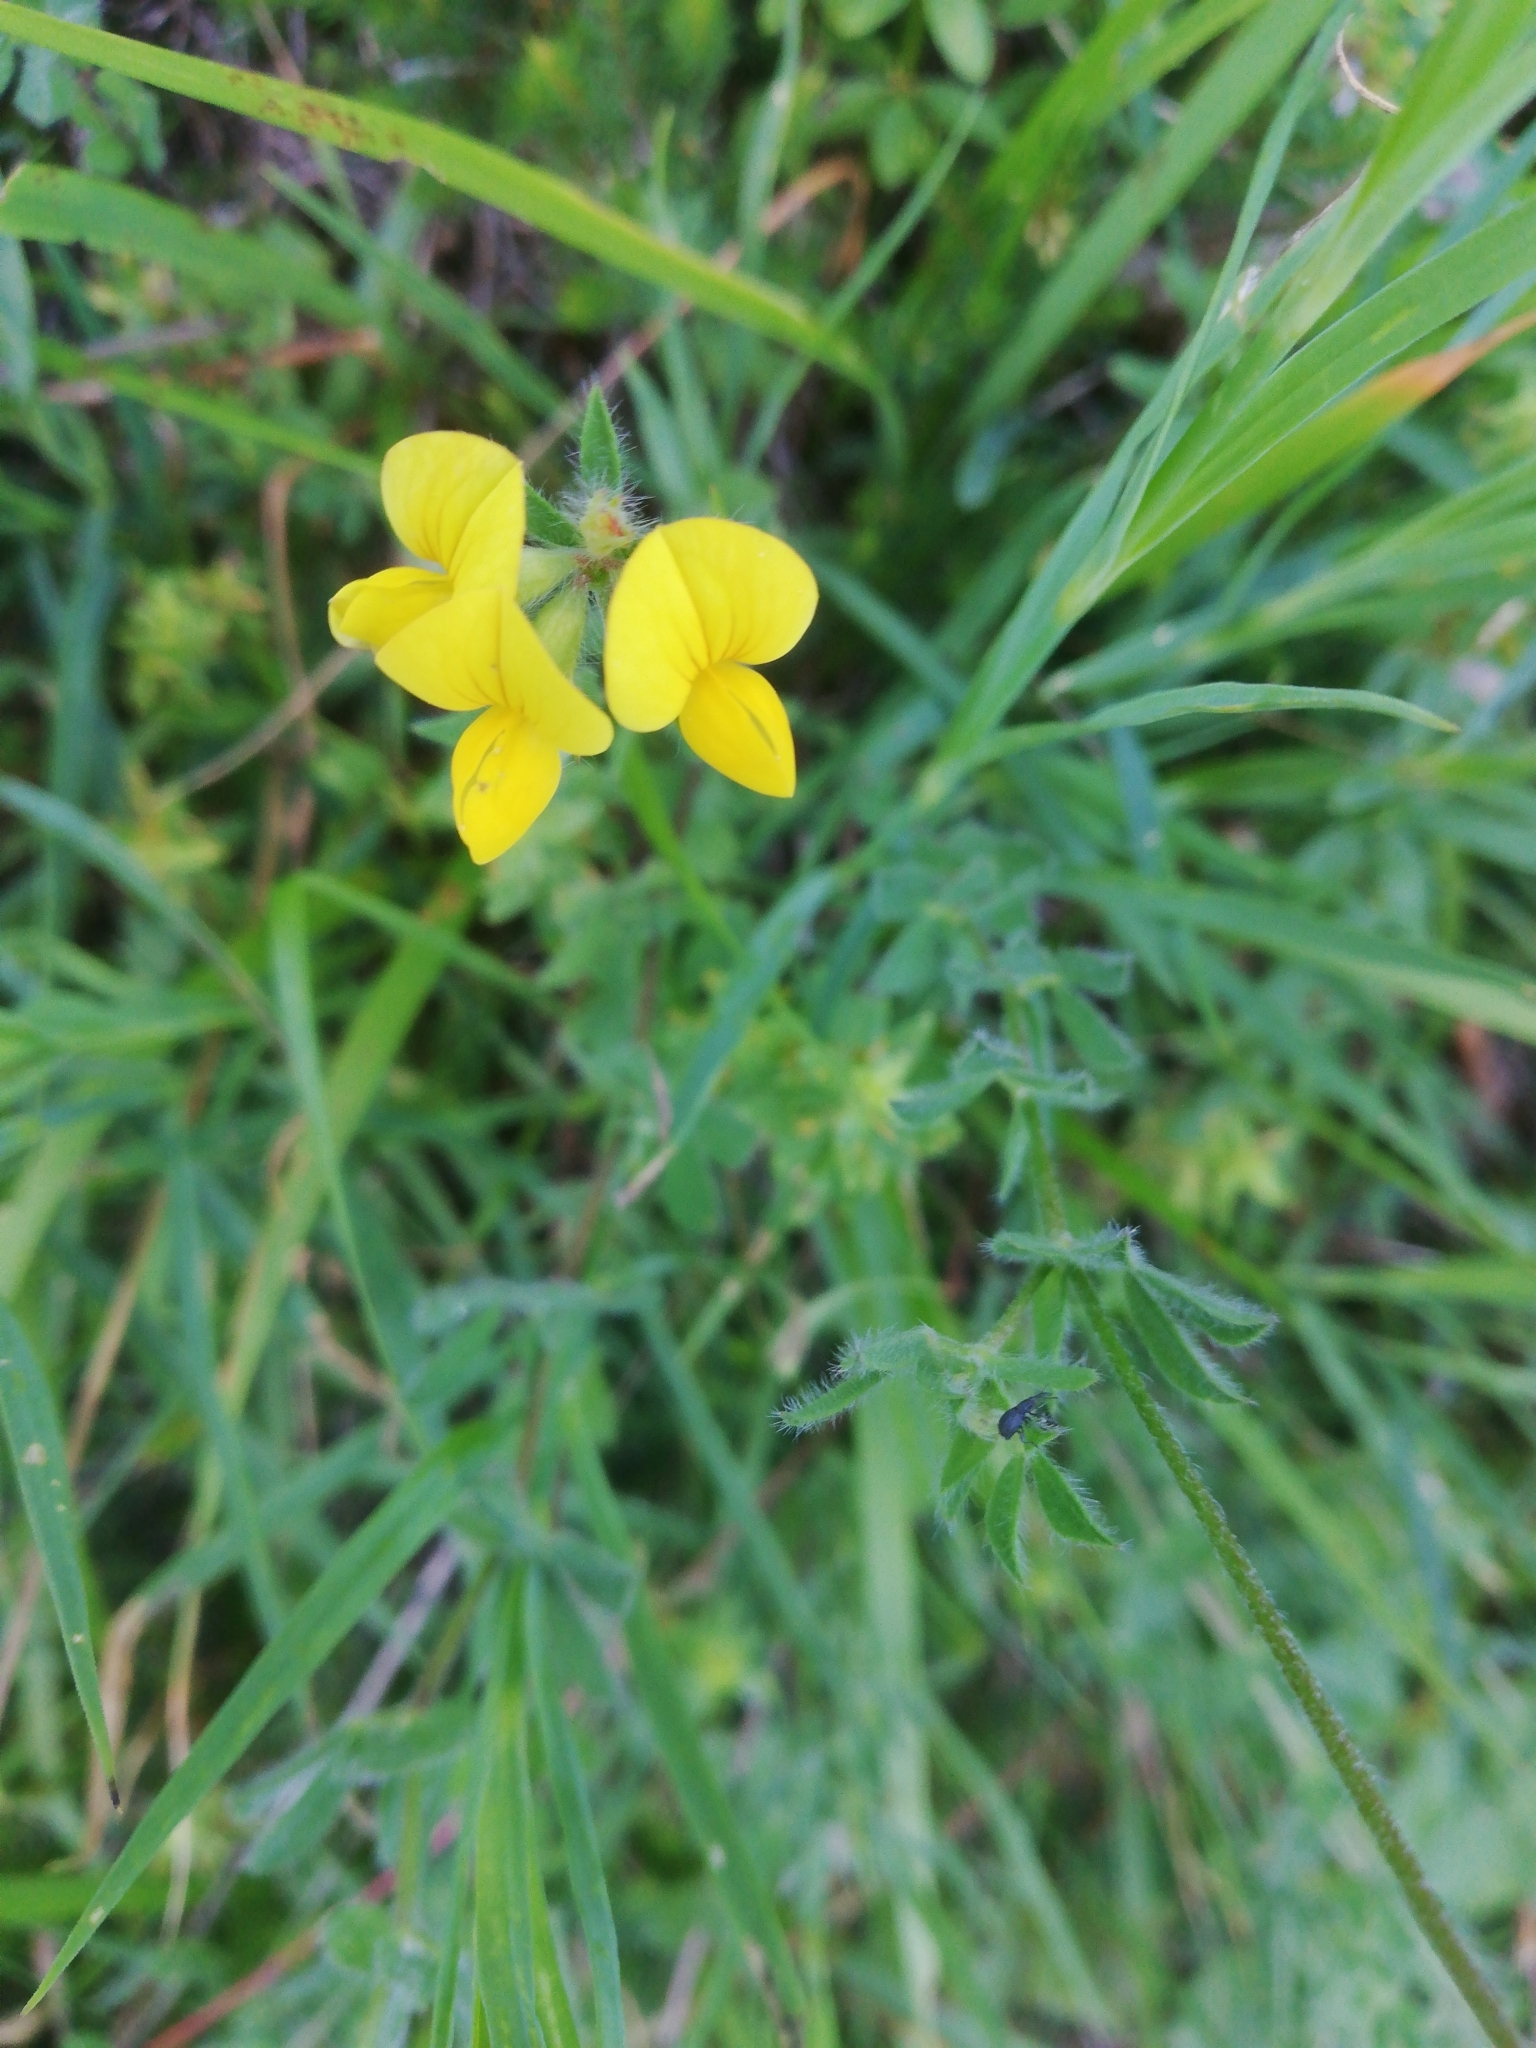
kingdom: Plantae
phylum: Tracheophyta
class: Magnoliopsida
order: Fabales
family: Fabaceae
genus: Lotus
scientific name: Lotus corniculatus
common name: Common bird's-foot-trefoil
